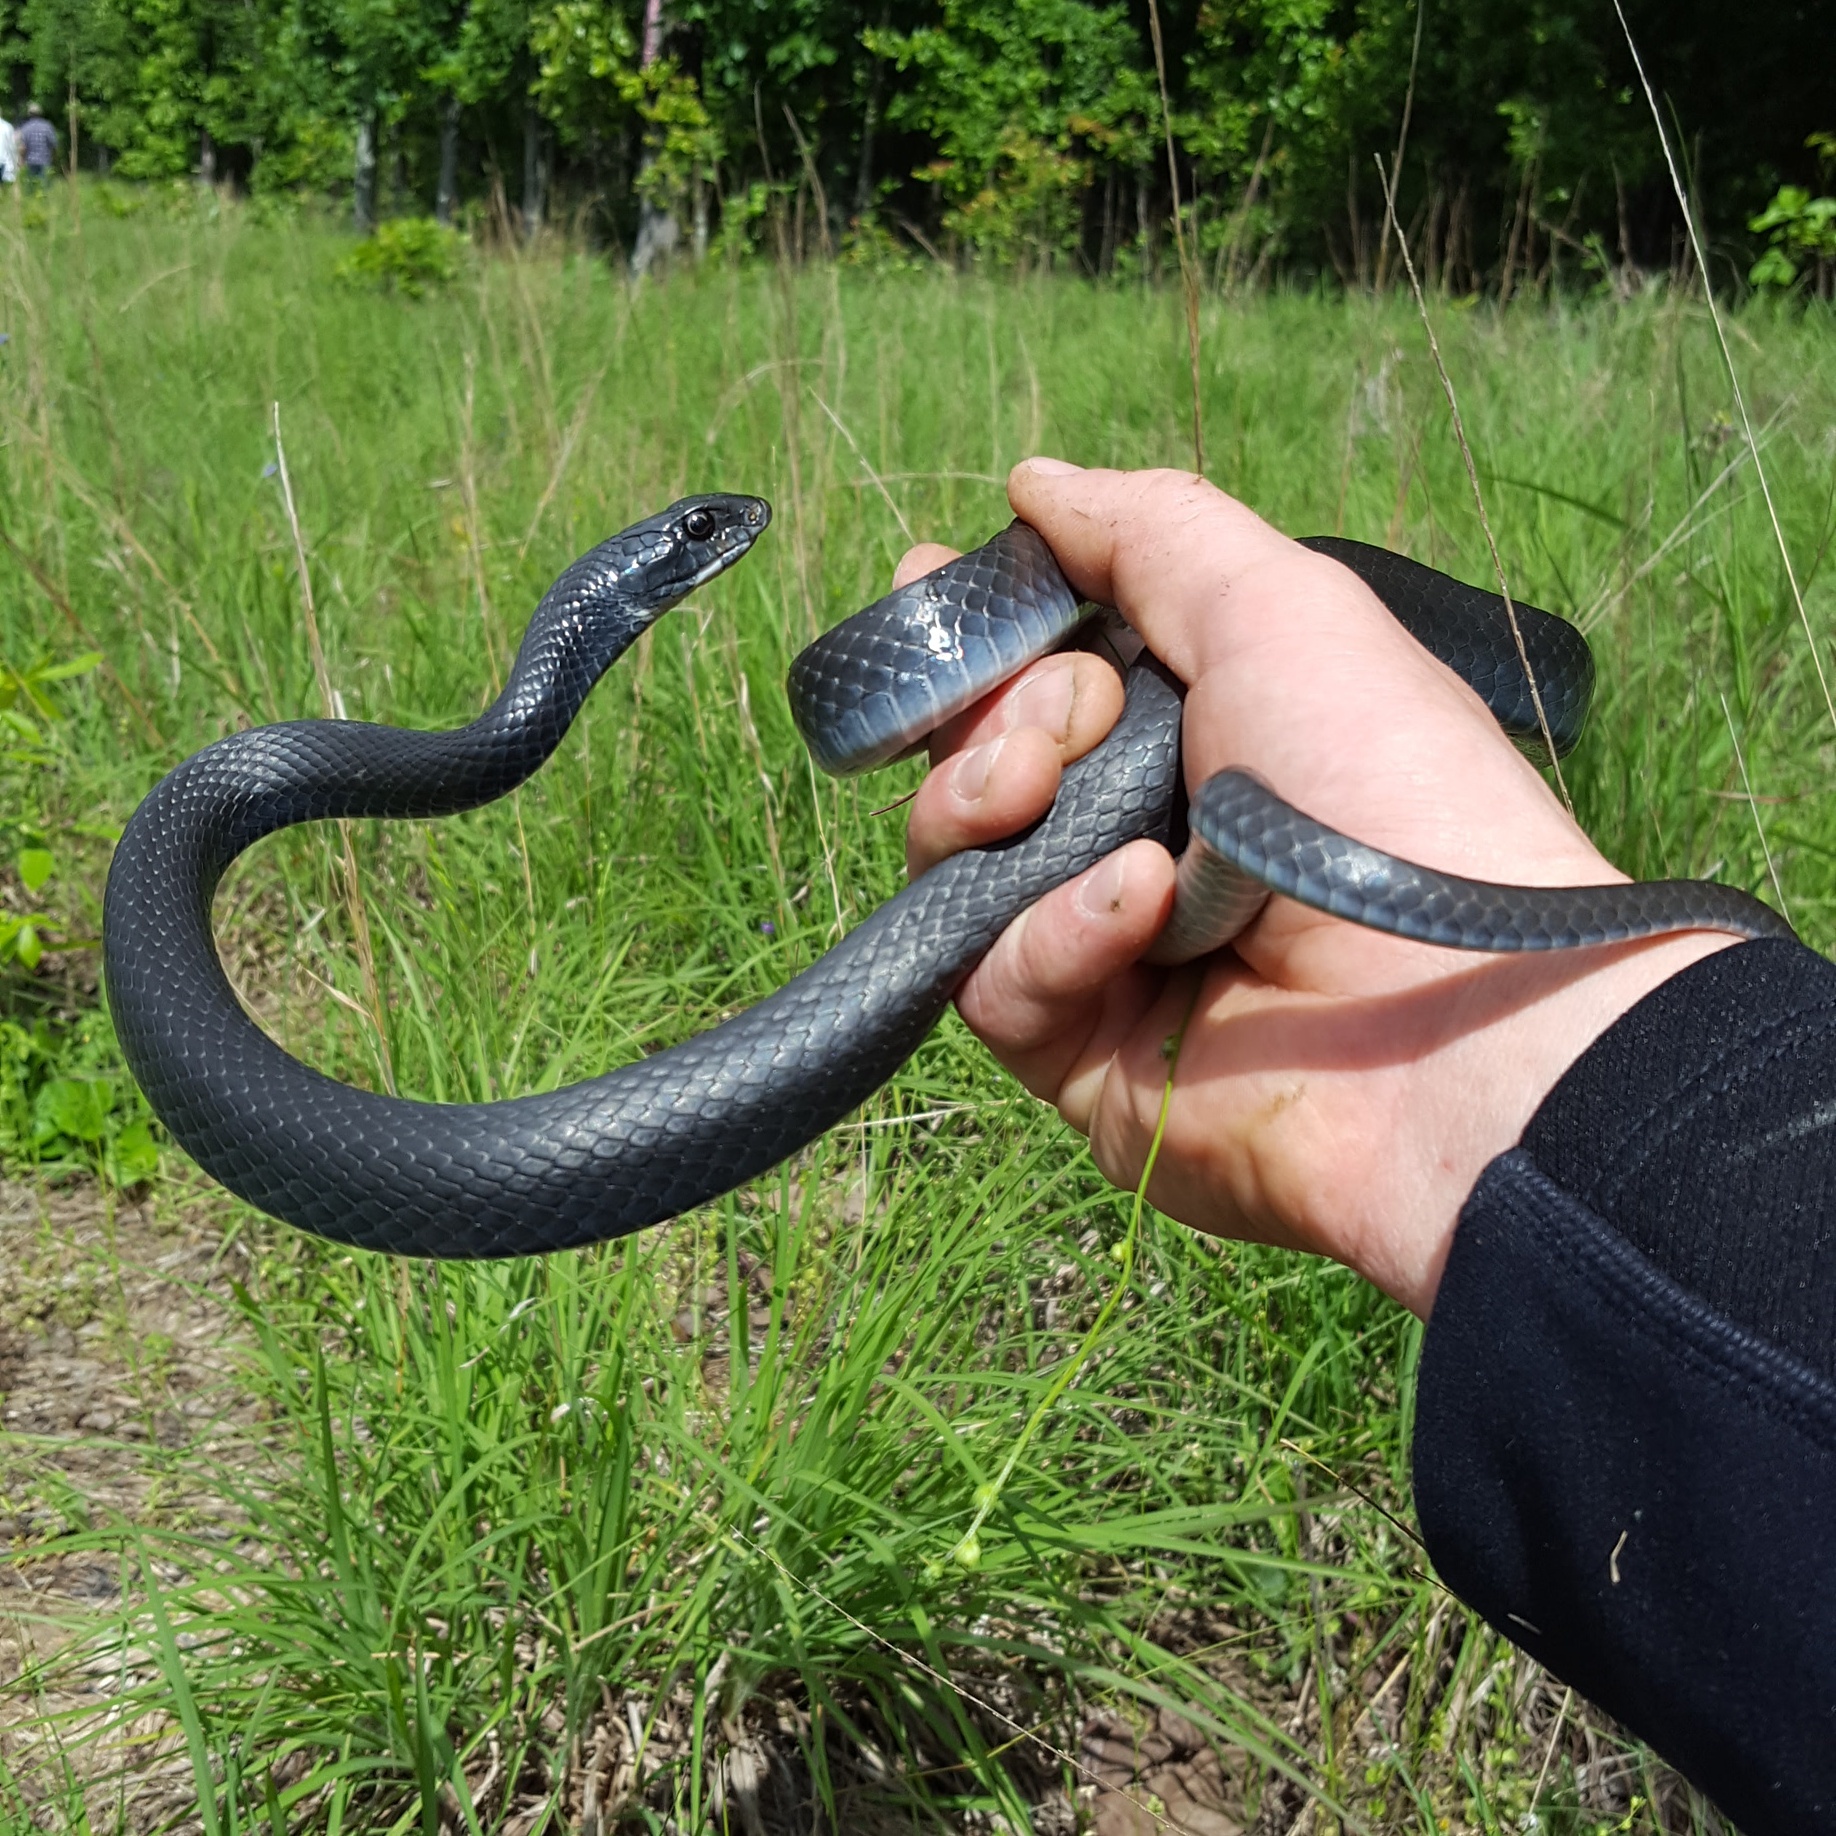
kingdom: Animalia
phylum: Chordata
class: Squamata
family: Colubridae
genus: Coluber
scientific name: Coluber constrictor
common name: Eastern racer
